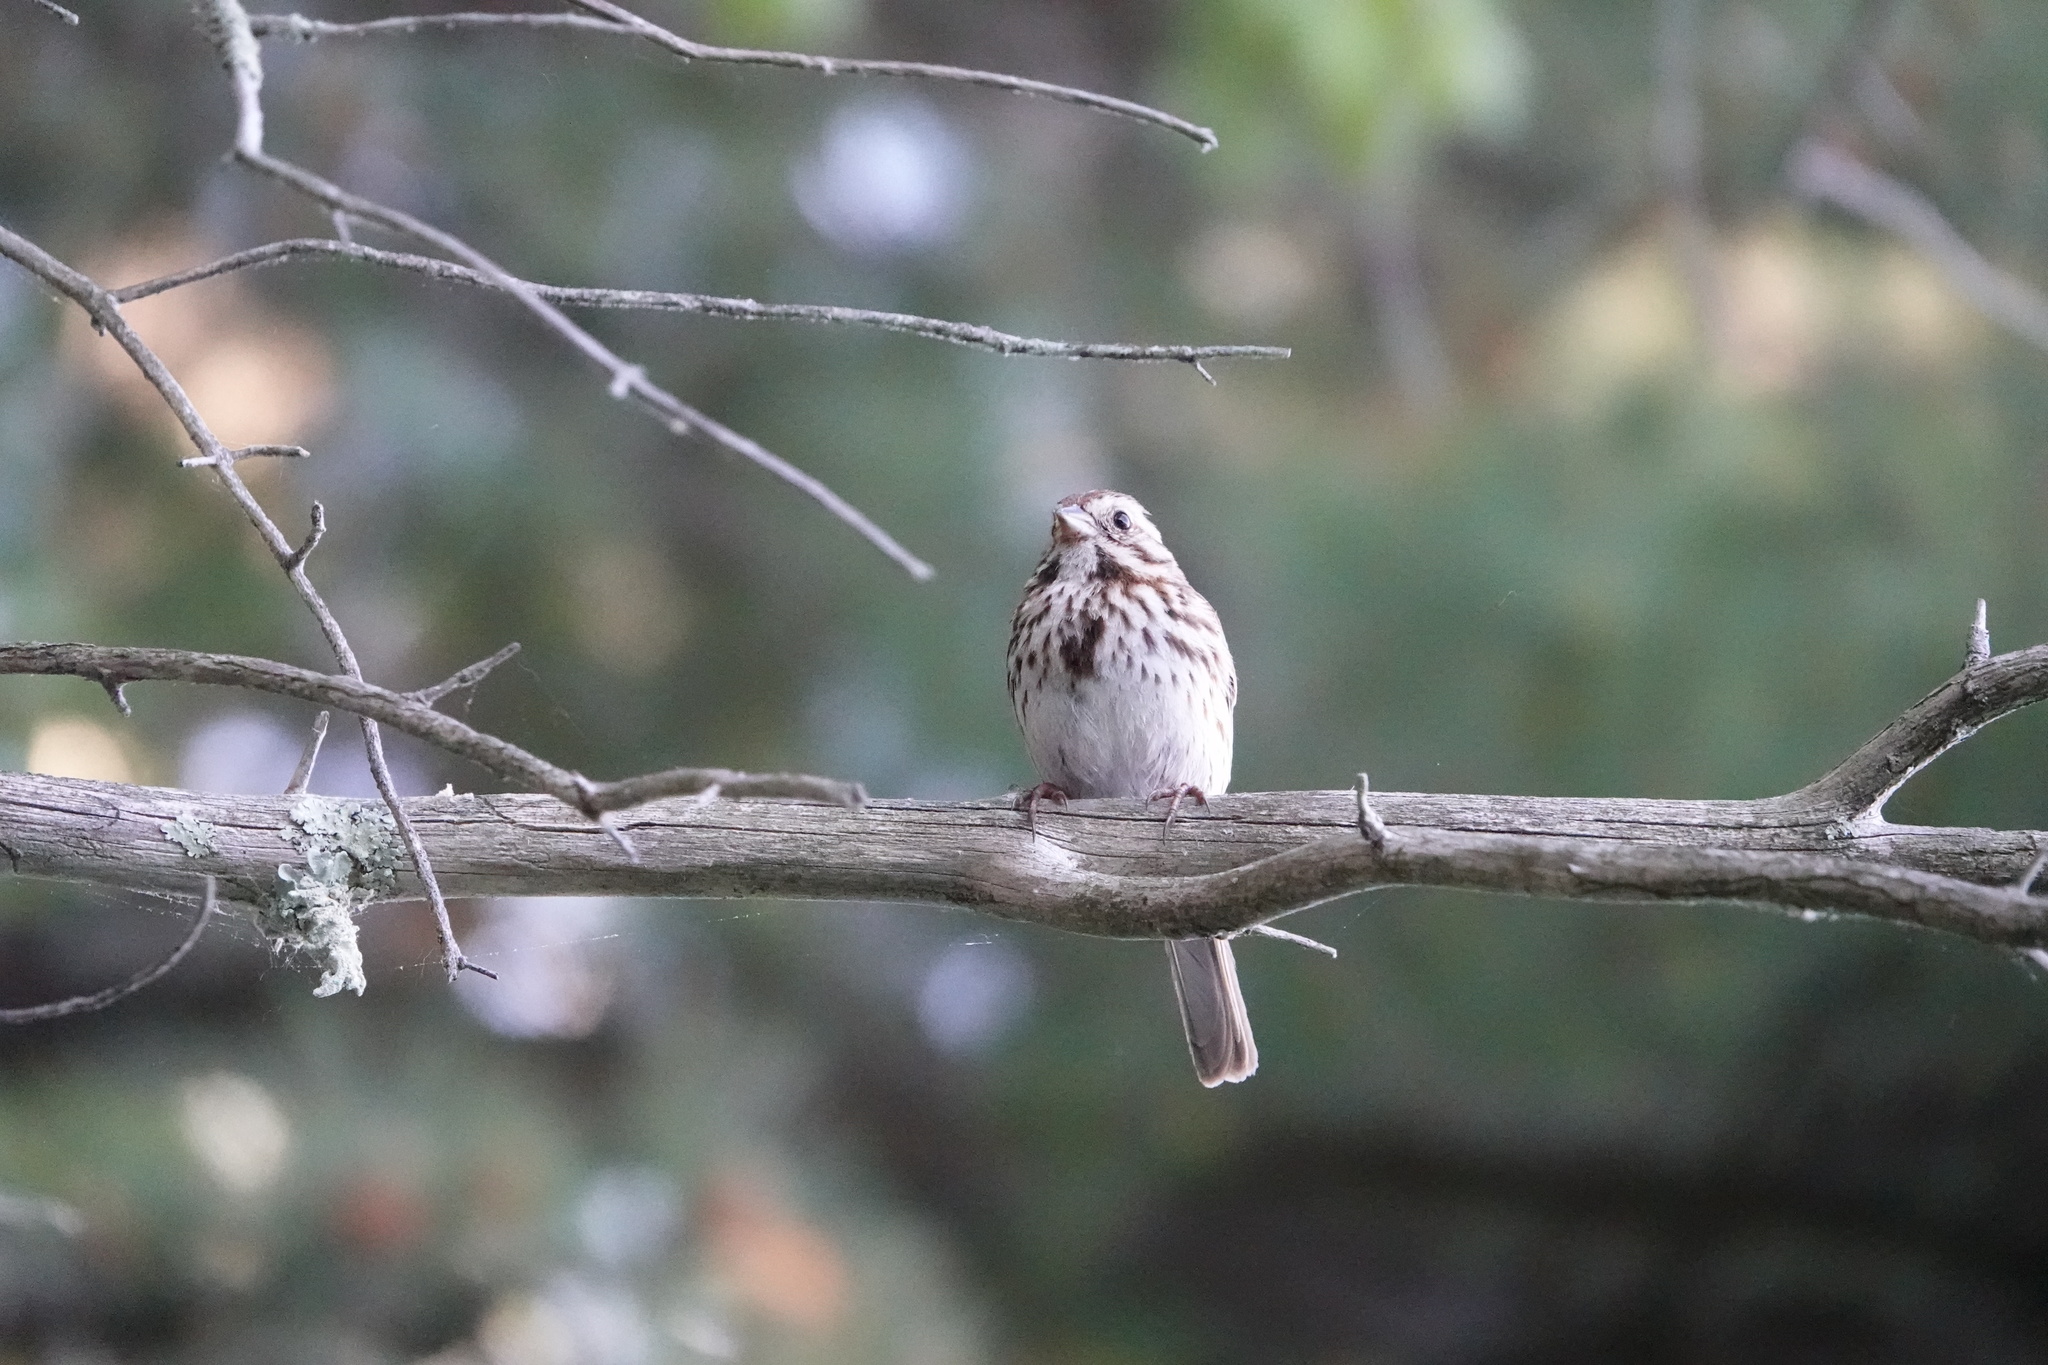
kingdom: Animalia
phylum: Chordata
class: Aves
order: Passeriformes
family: Passerellidae
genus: Melospiza
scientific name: Melospiza melodia
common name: Song sparrow
